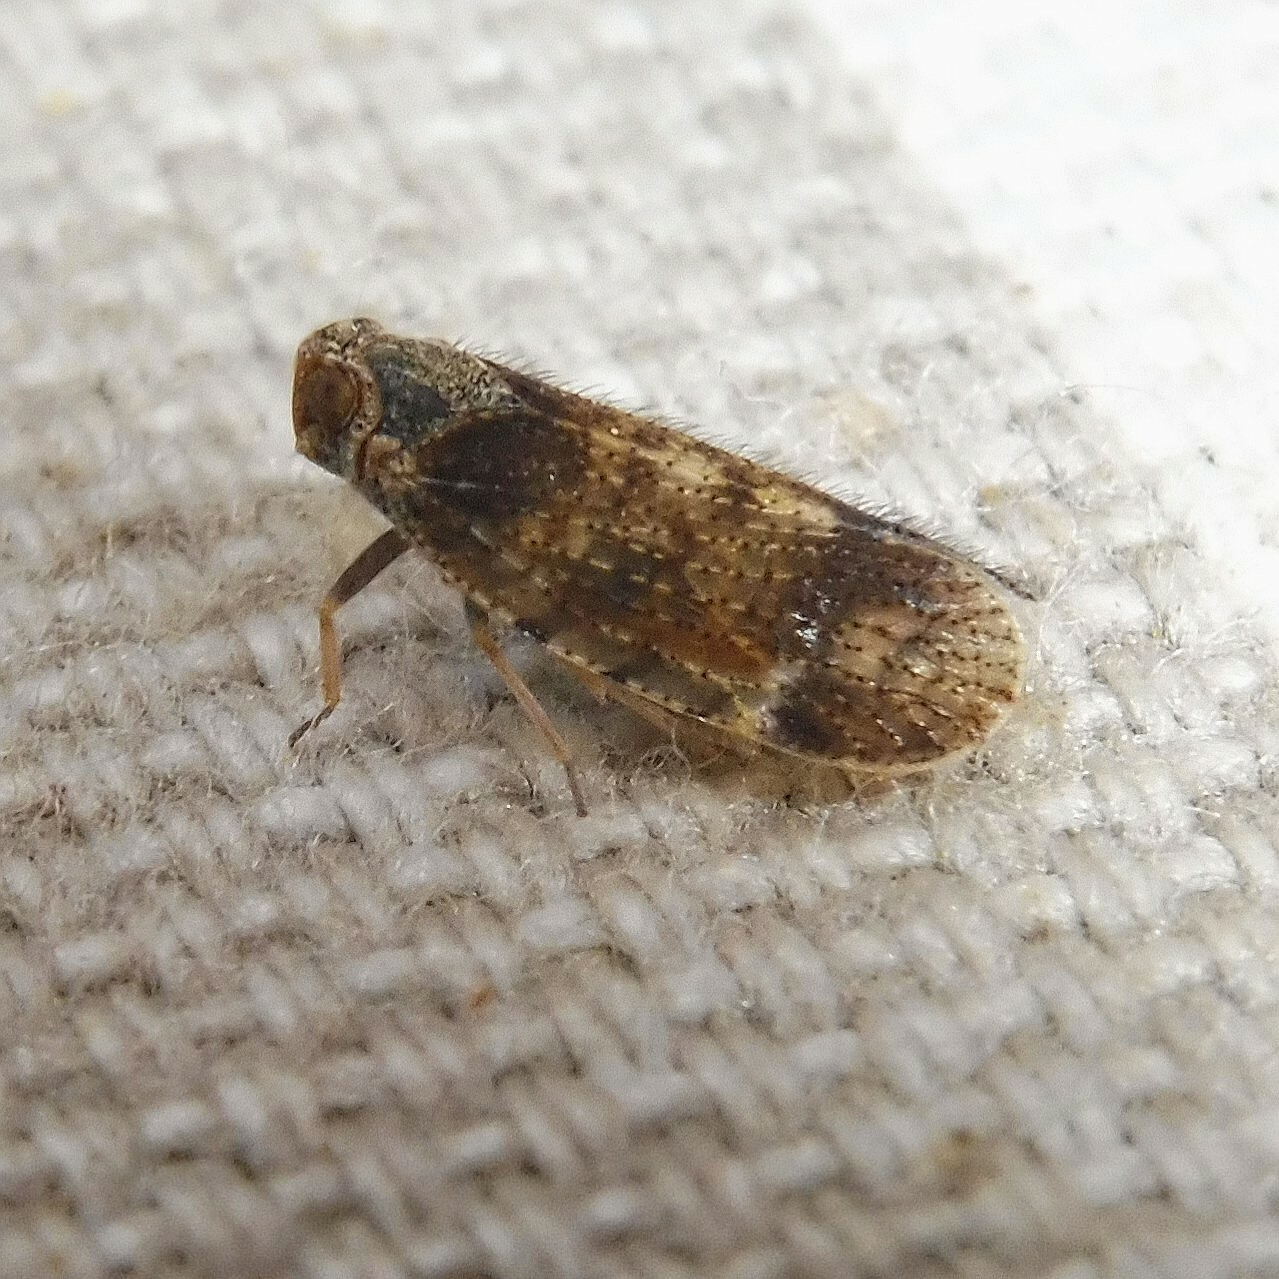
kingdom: Animalia
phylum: Arthropoda
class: Insecta
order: Hemiptera
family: Cixiidae
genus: Tachycixius
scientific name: Tachycixius pilosus
